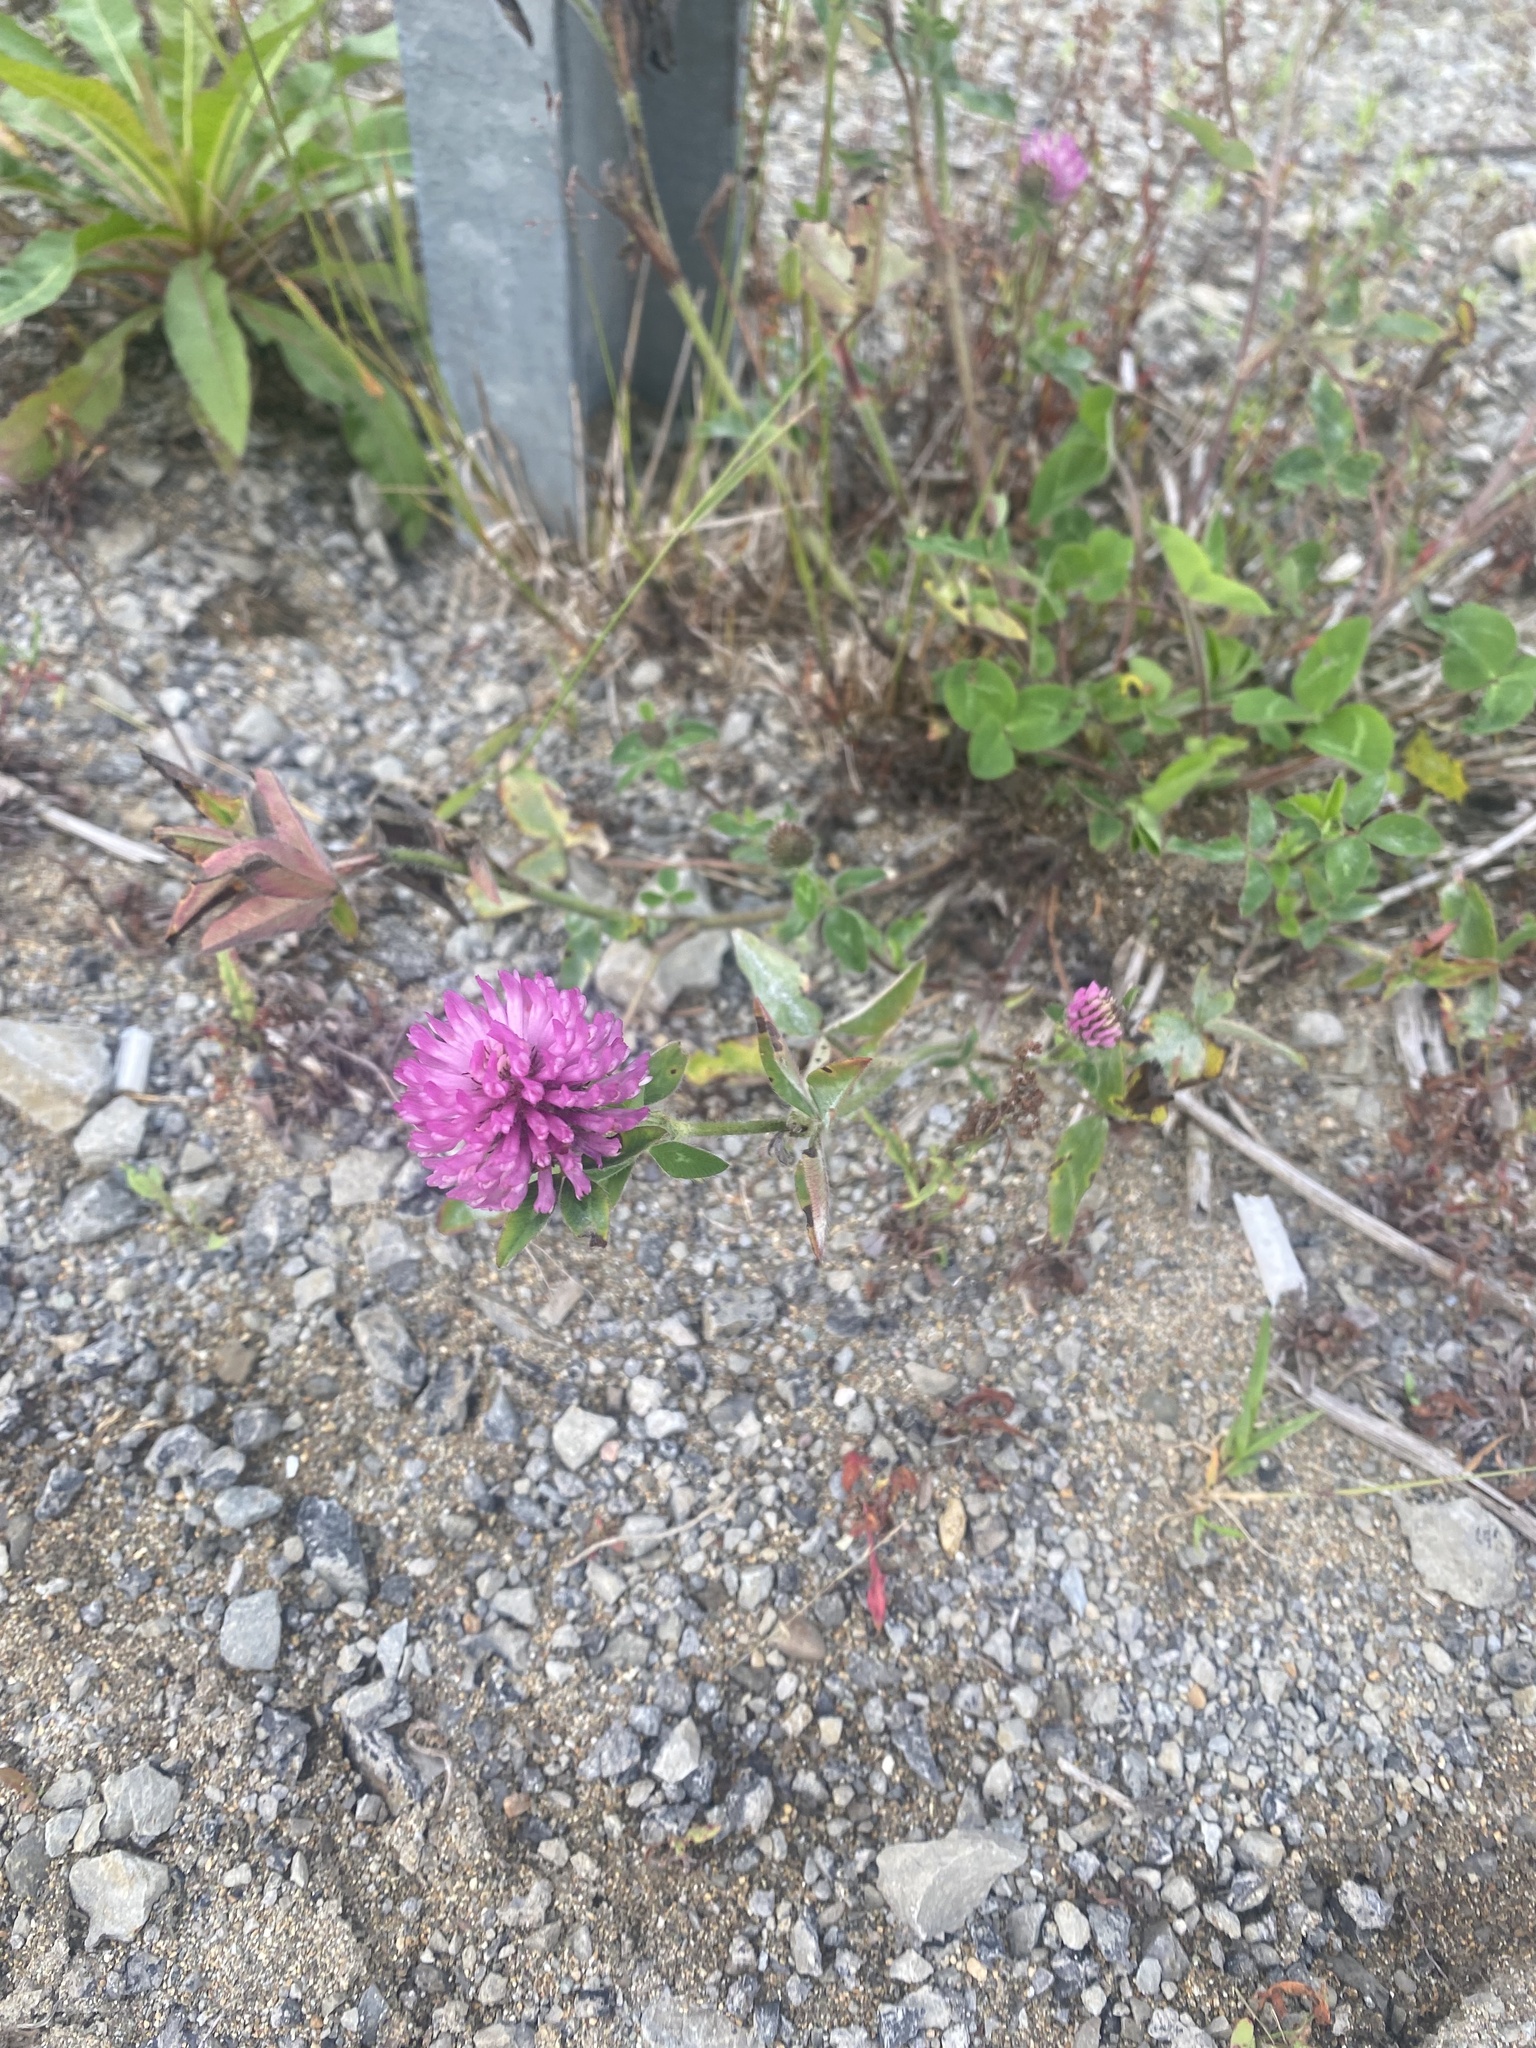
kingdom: Plantae
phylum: Tracheophyta
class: Magnoliopsida
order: Fabales
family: Fabaceae
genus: Trifolium
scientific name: Trifolium pratense
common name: Red clover
